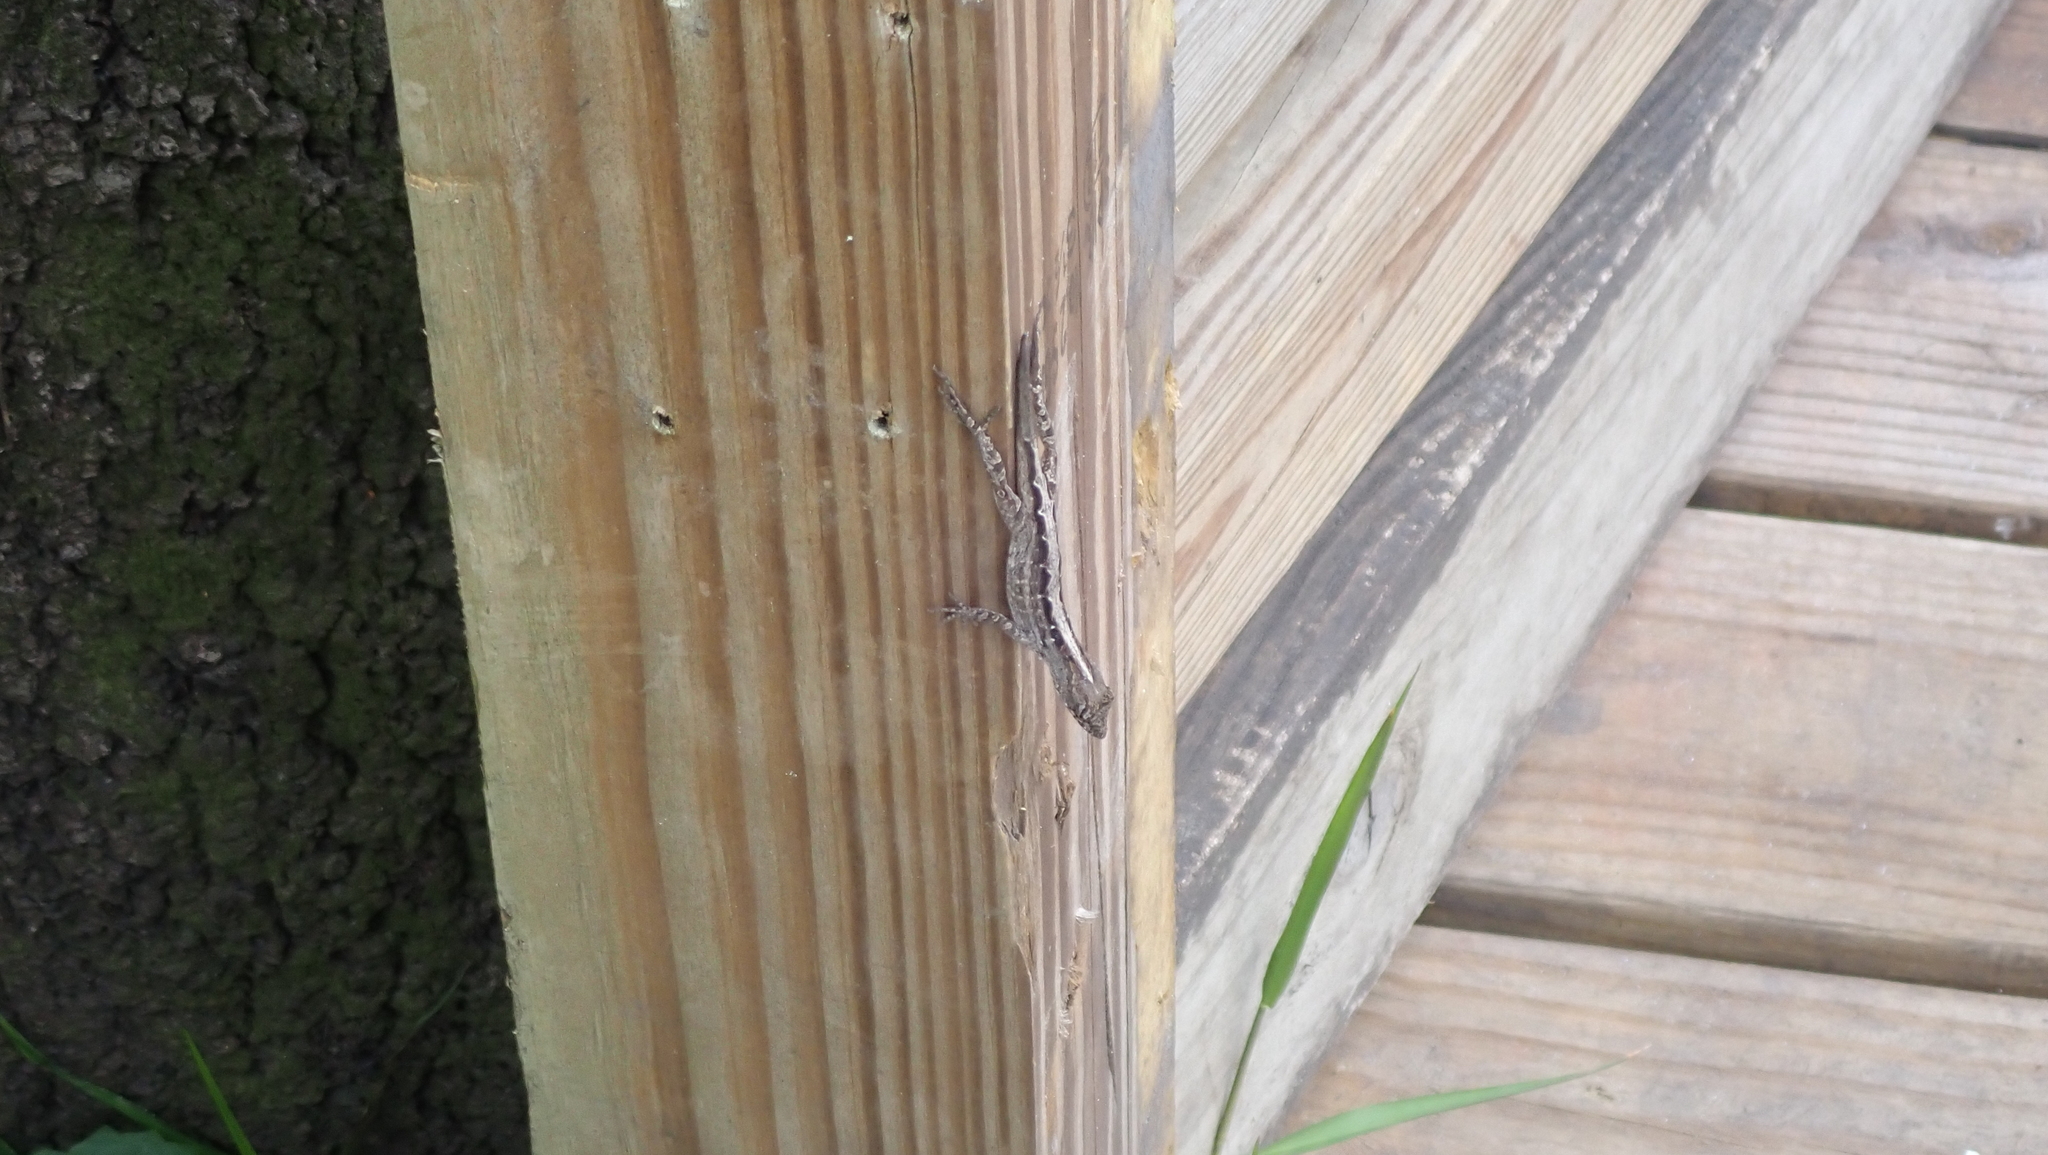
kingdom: Animalia
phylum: Chordata
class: Squamata
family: Dactyloidae
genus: Anolis
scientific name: Anolis sagrei
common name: Brown anole
